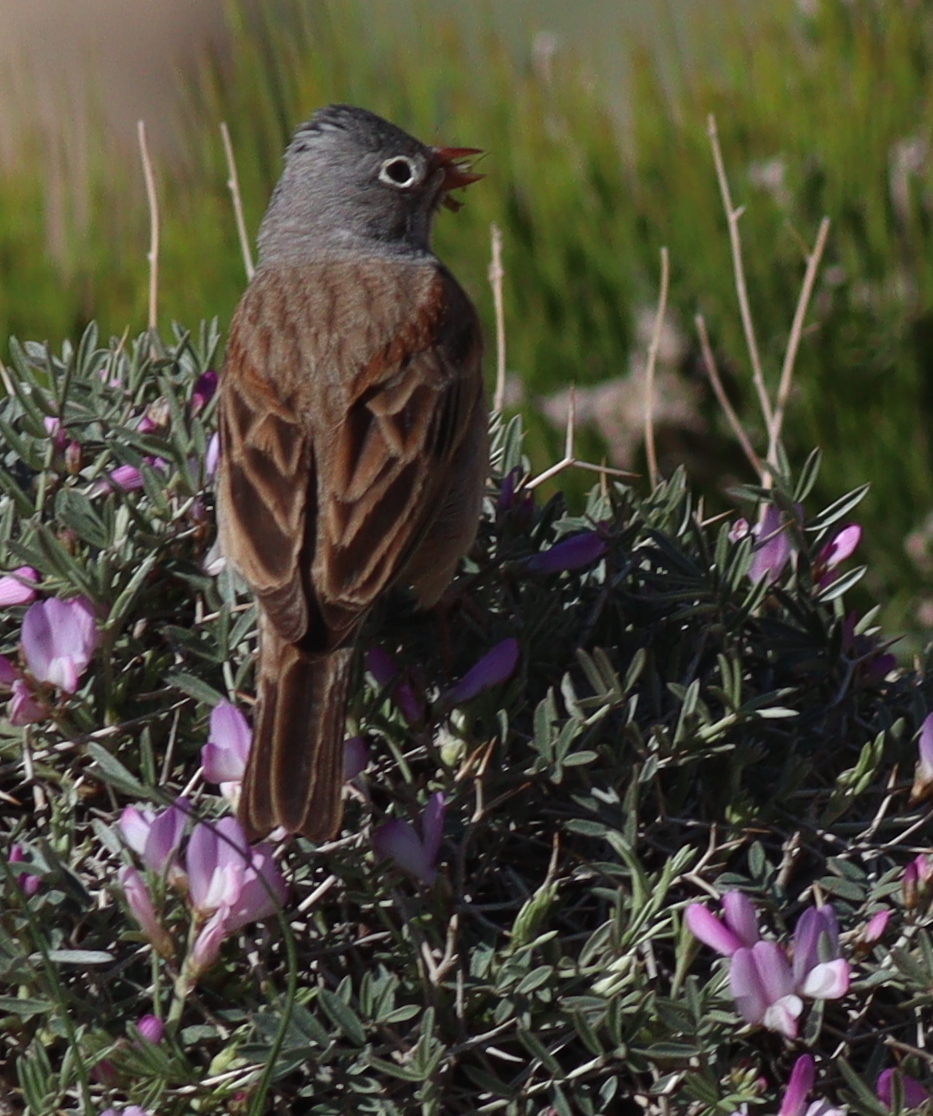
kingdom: Animalia
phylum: Chordata
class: Aves
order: Passeriformes
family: Emberizidae
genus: Emberiza
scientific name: Emberiza buchanani
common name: Grey-necked bunting
